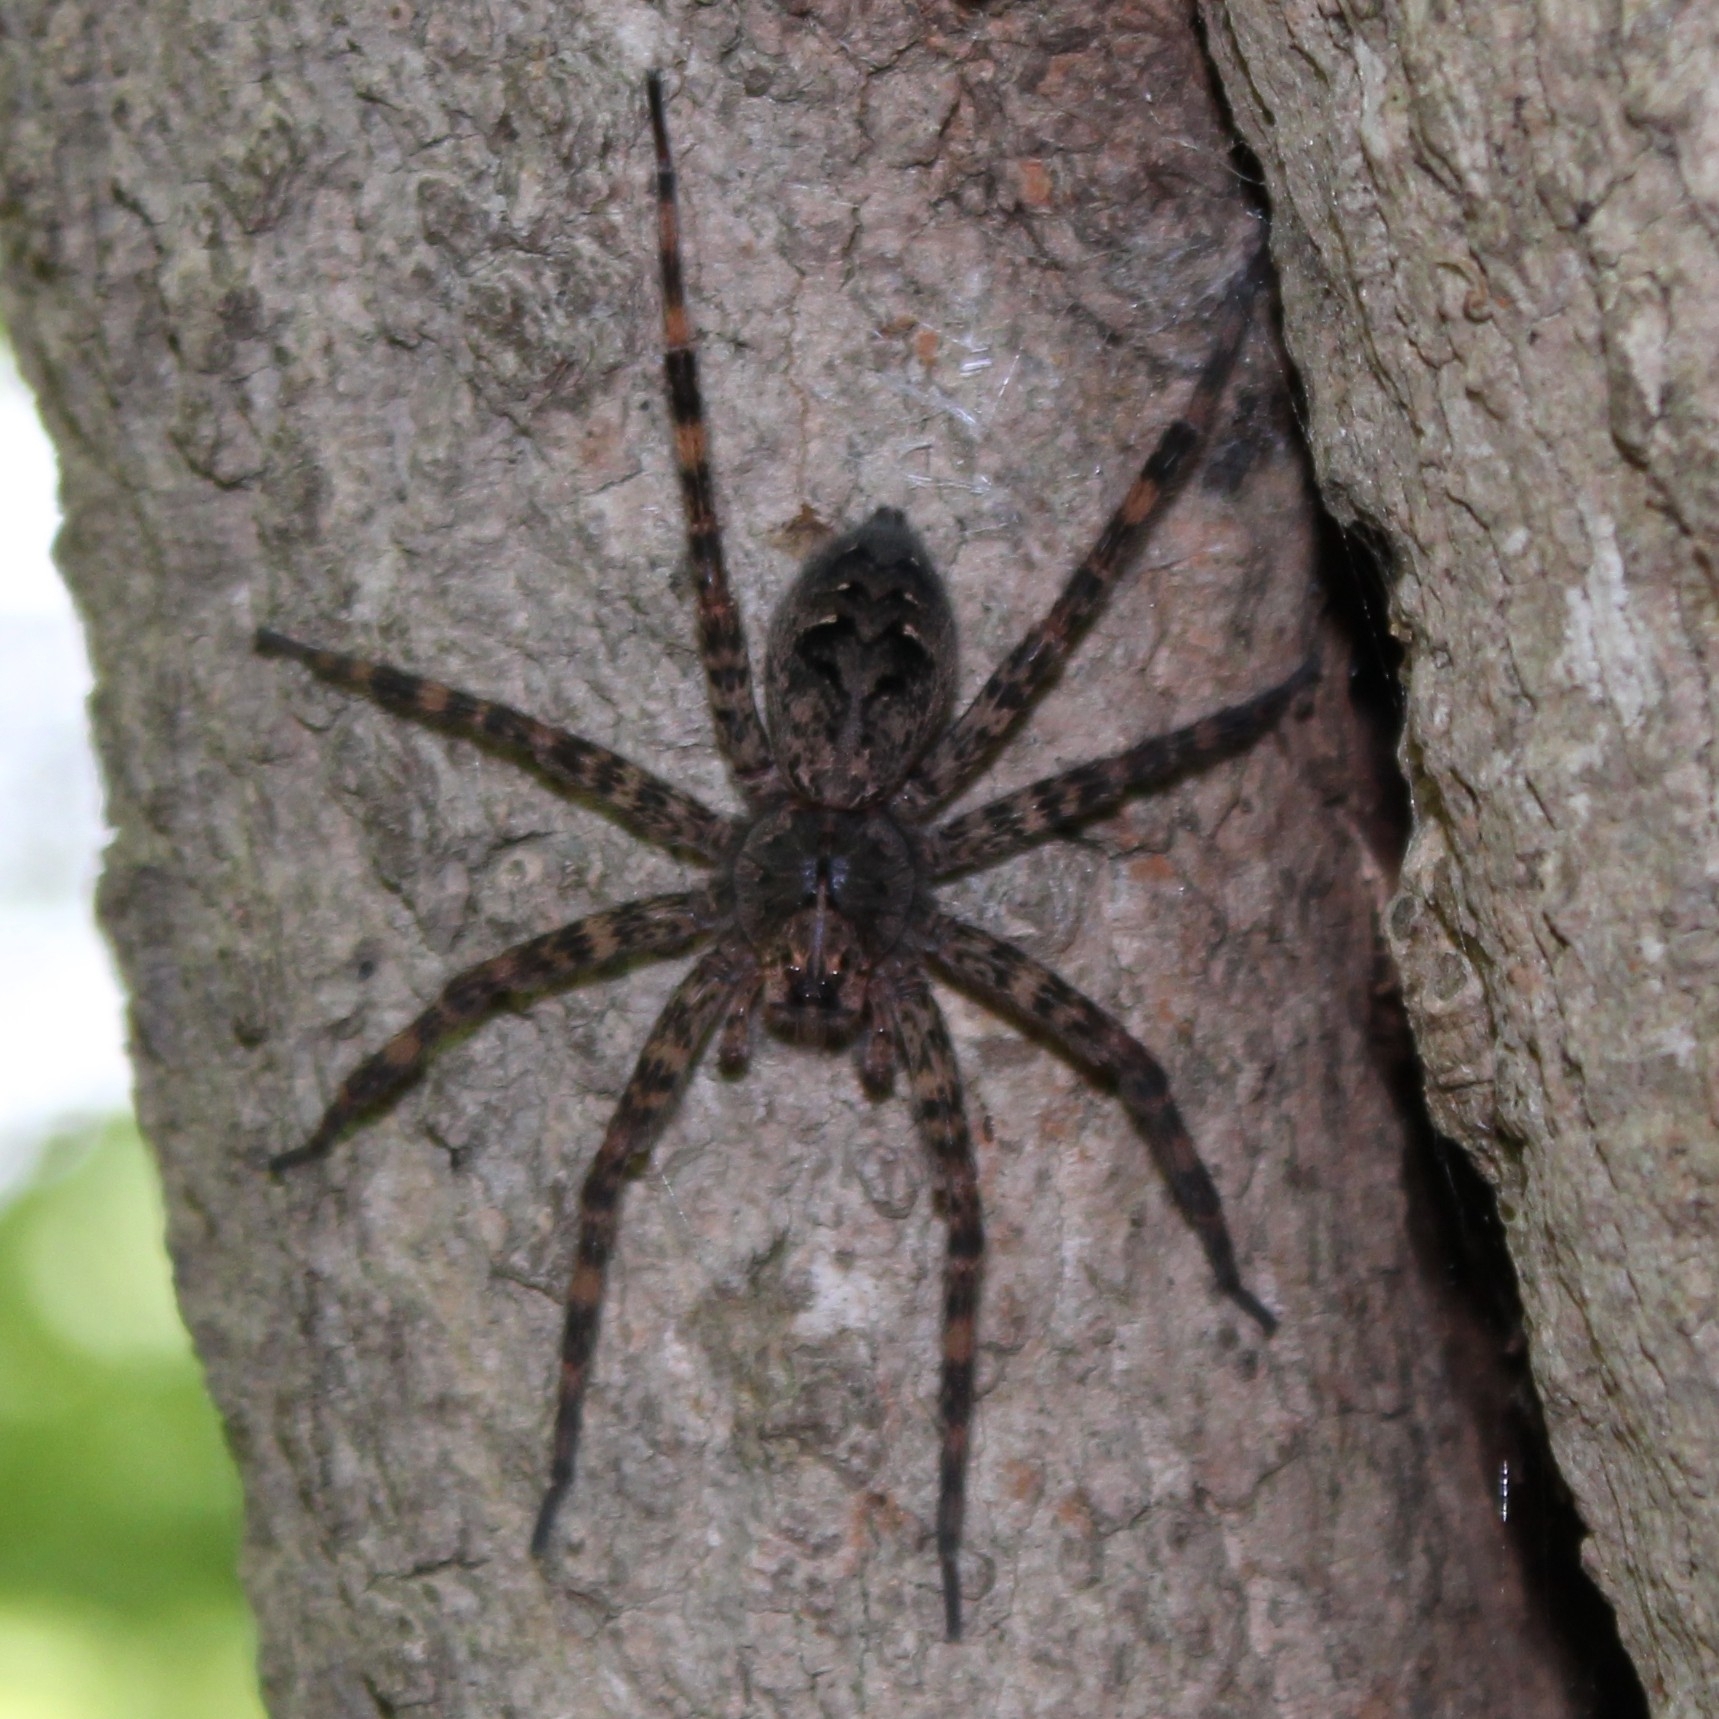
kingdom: Animalia
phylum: Arthropoda
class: Arachnida
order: Araneae
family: Pisauridae
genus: Dolomedes
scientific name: Dolomedes tenebrosus
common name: Dark fishing spider
